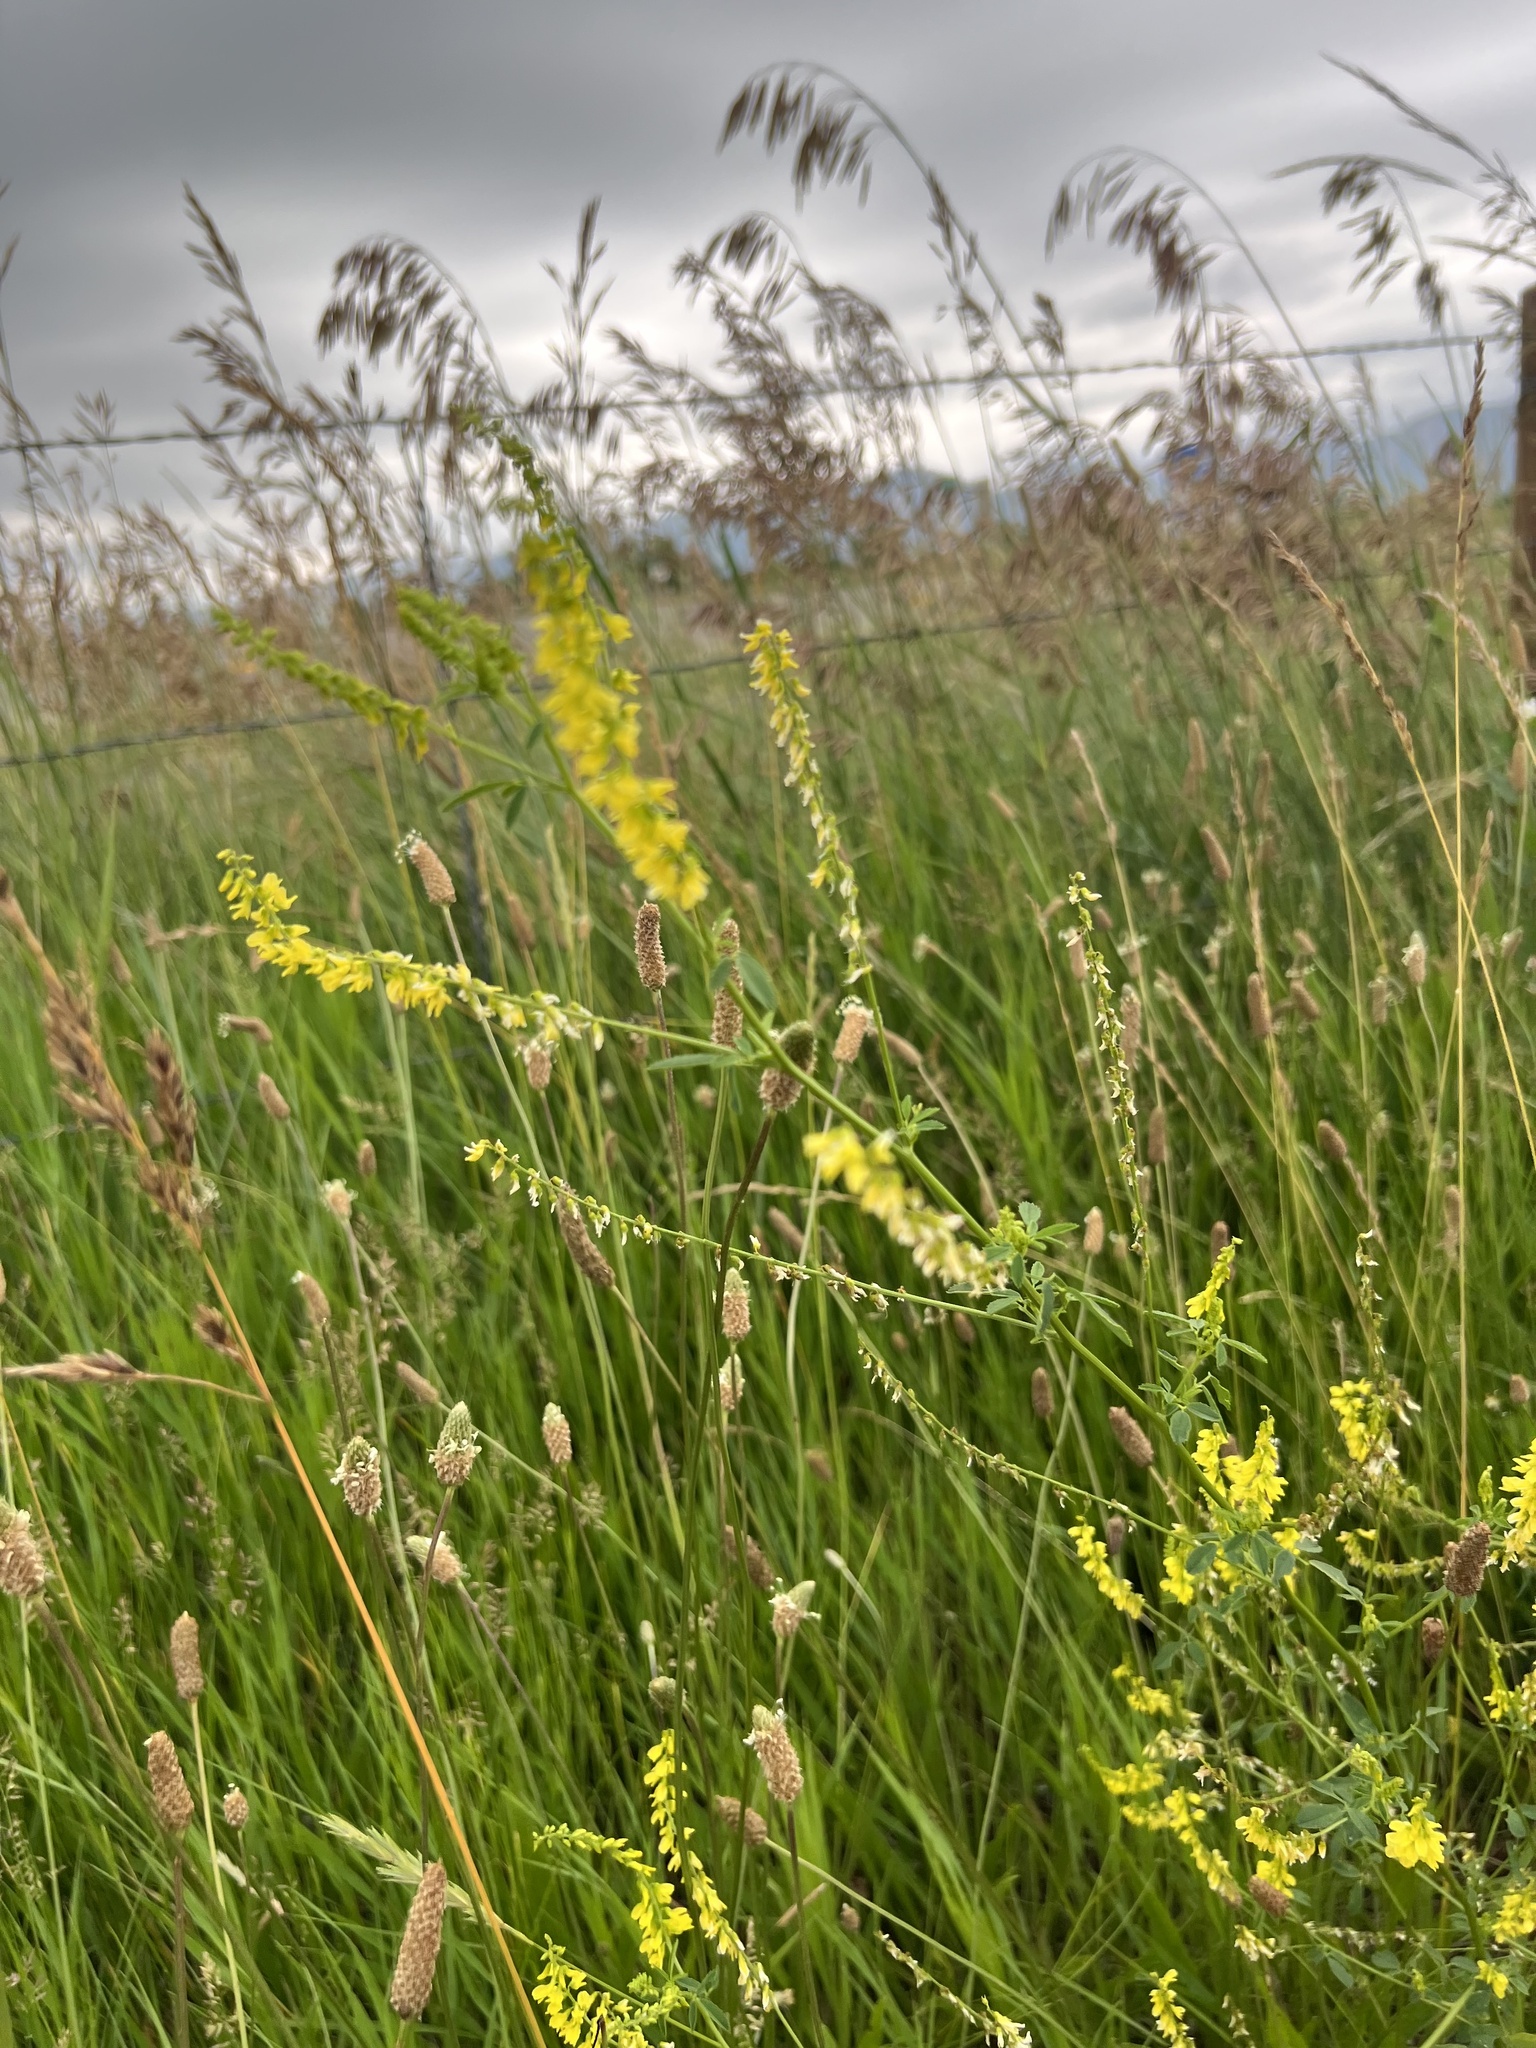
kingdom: Plantae
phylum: Tracheophyta
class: Magnoliopsida
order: Fabales
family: Fabaceae
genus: Melilotus
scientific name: Melilotus officinalis
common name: Sweetclover
